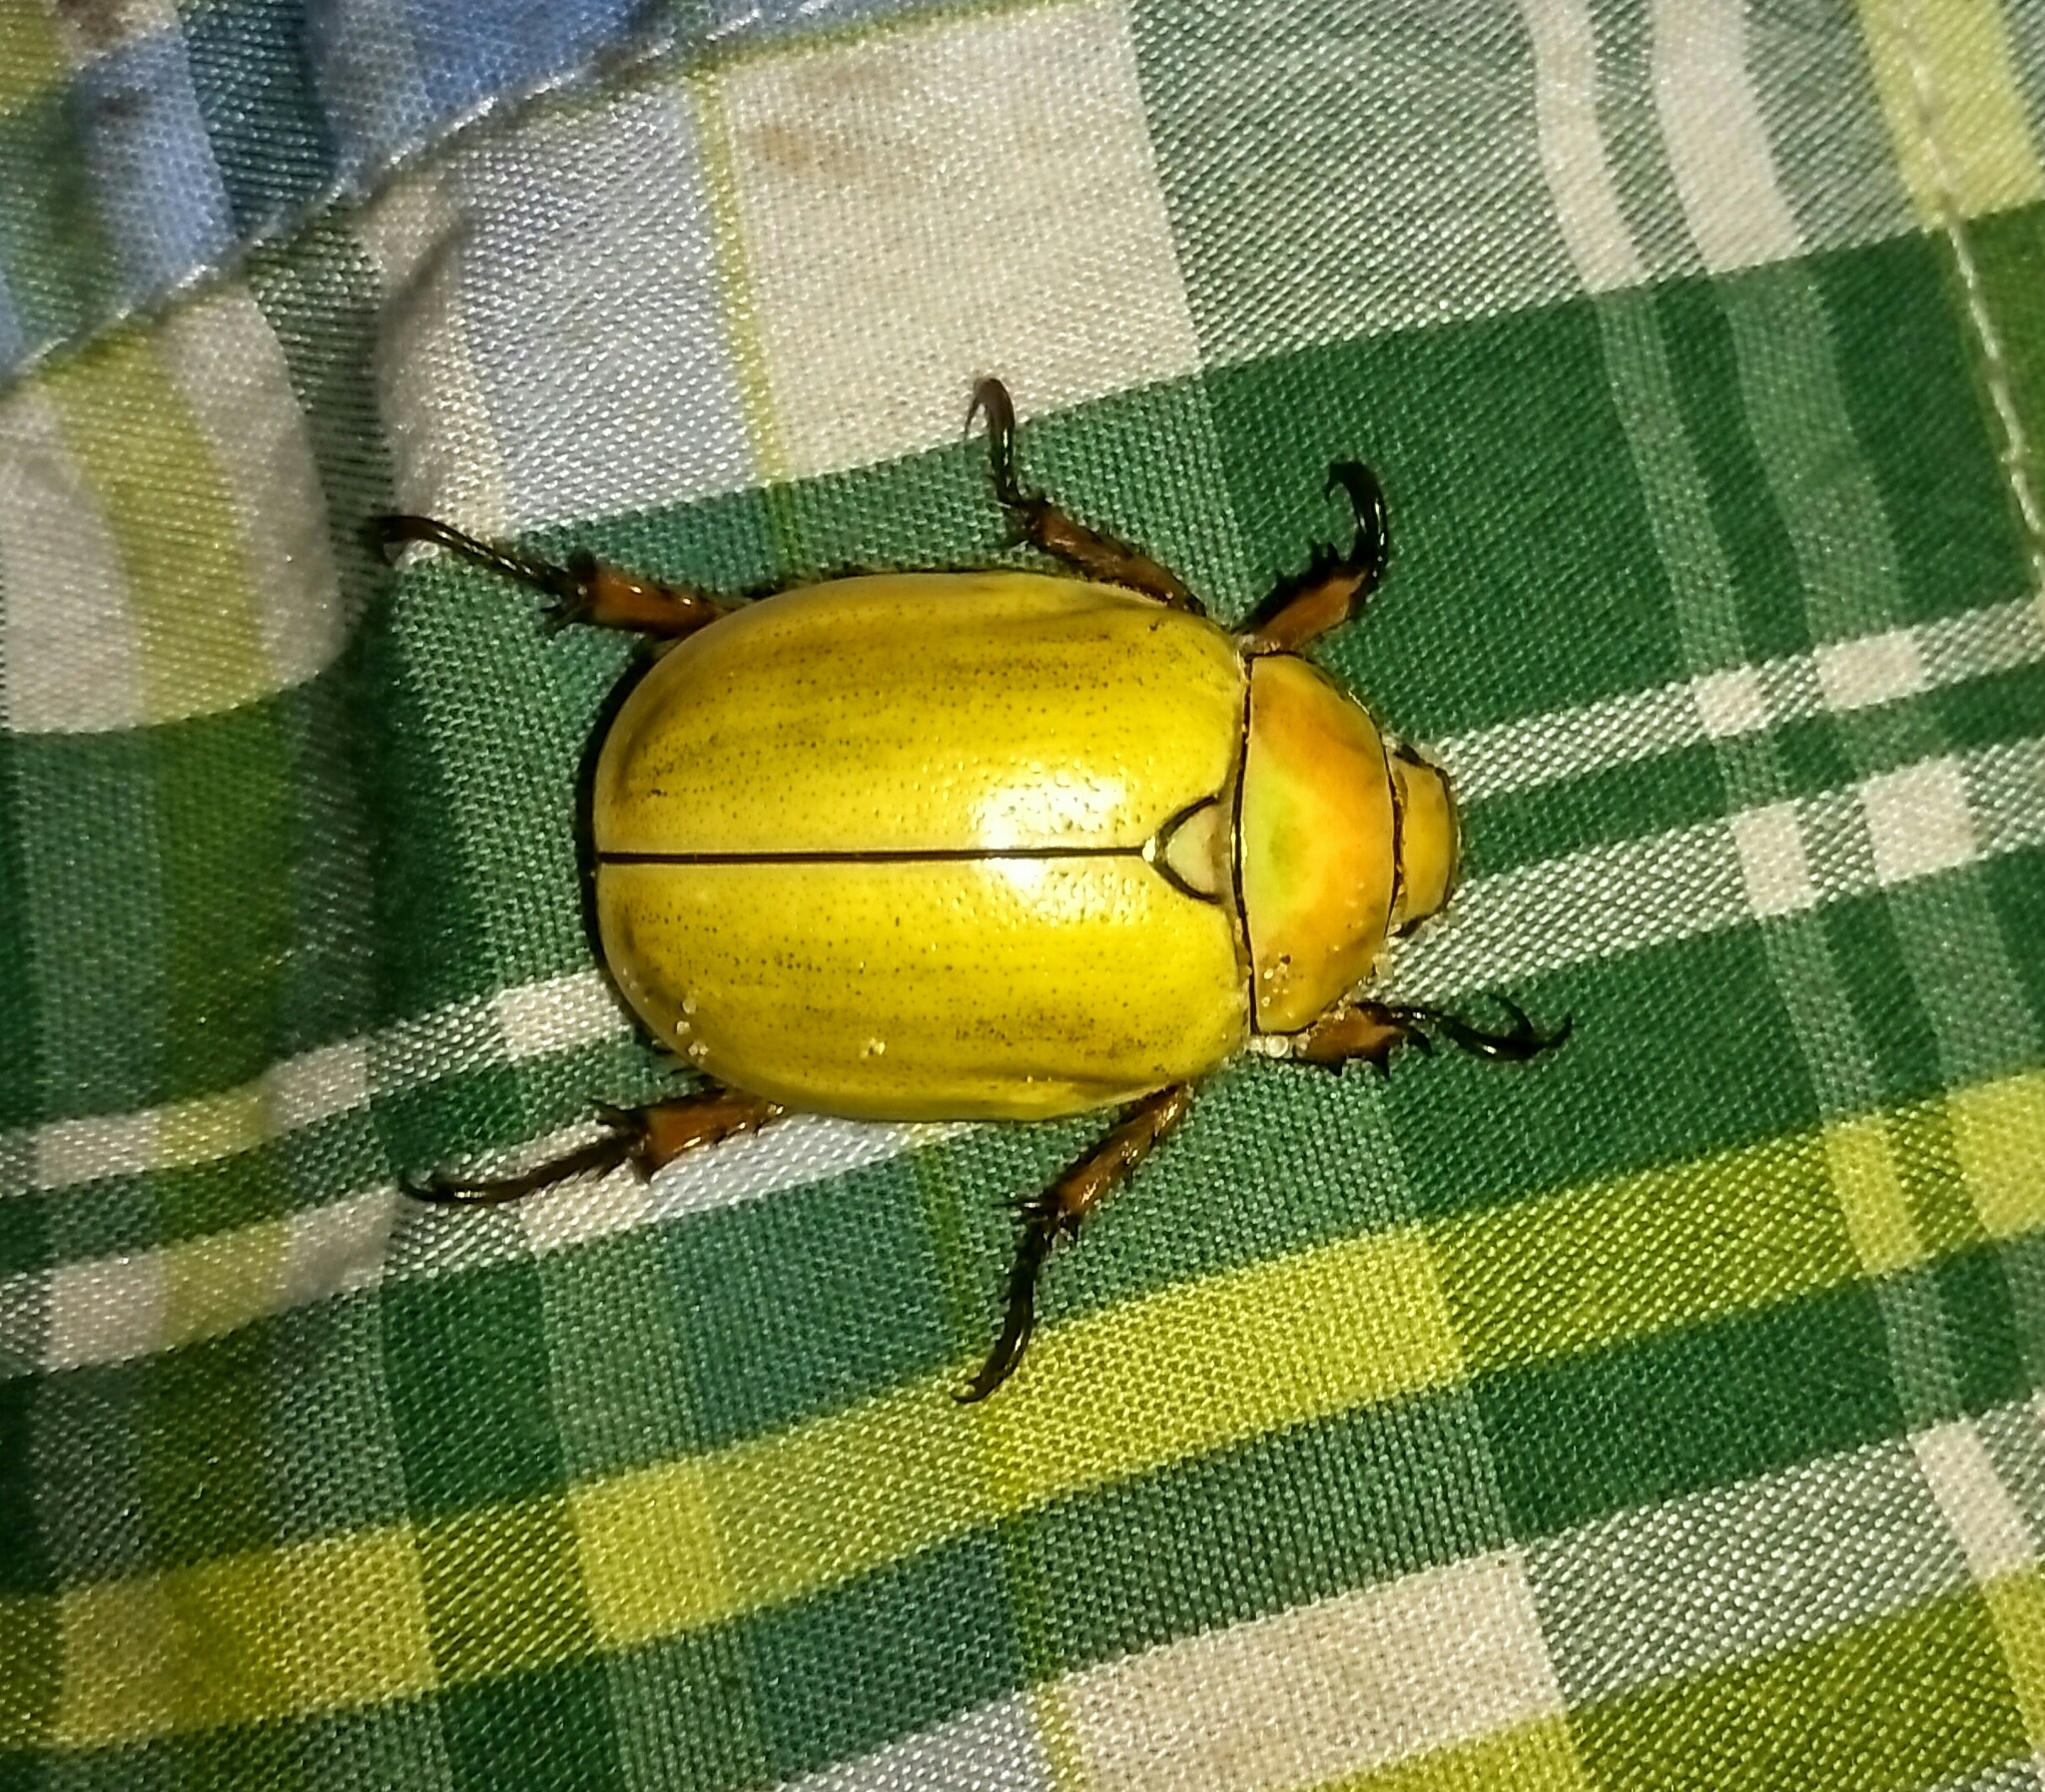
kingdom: Animalia
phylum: Arthropoda
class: Insecta
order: Coleoptera
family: Scarabaeidae
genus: Cotalpa
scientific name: Cotalpa lanigera
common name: Goldsmith beetle
